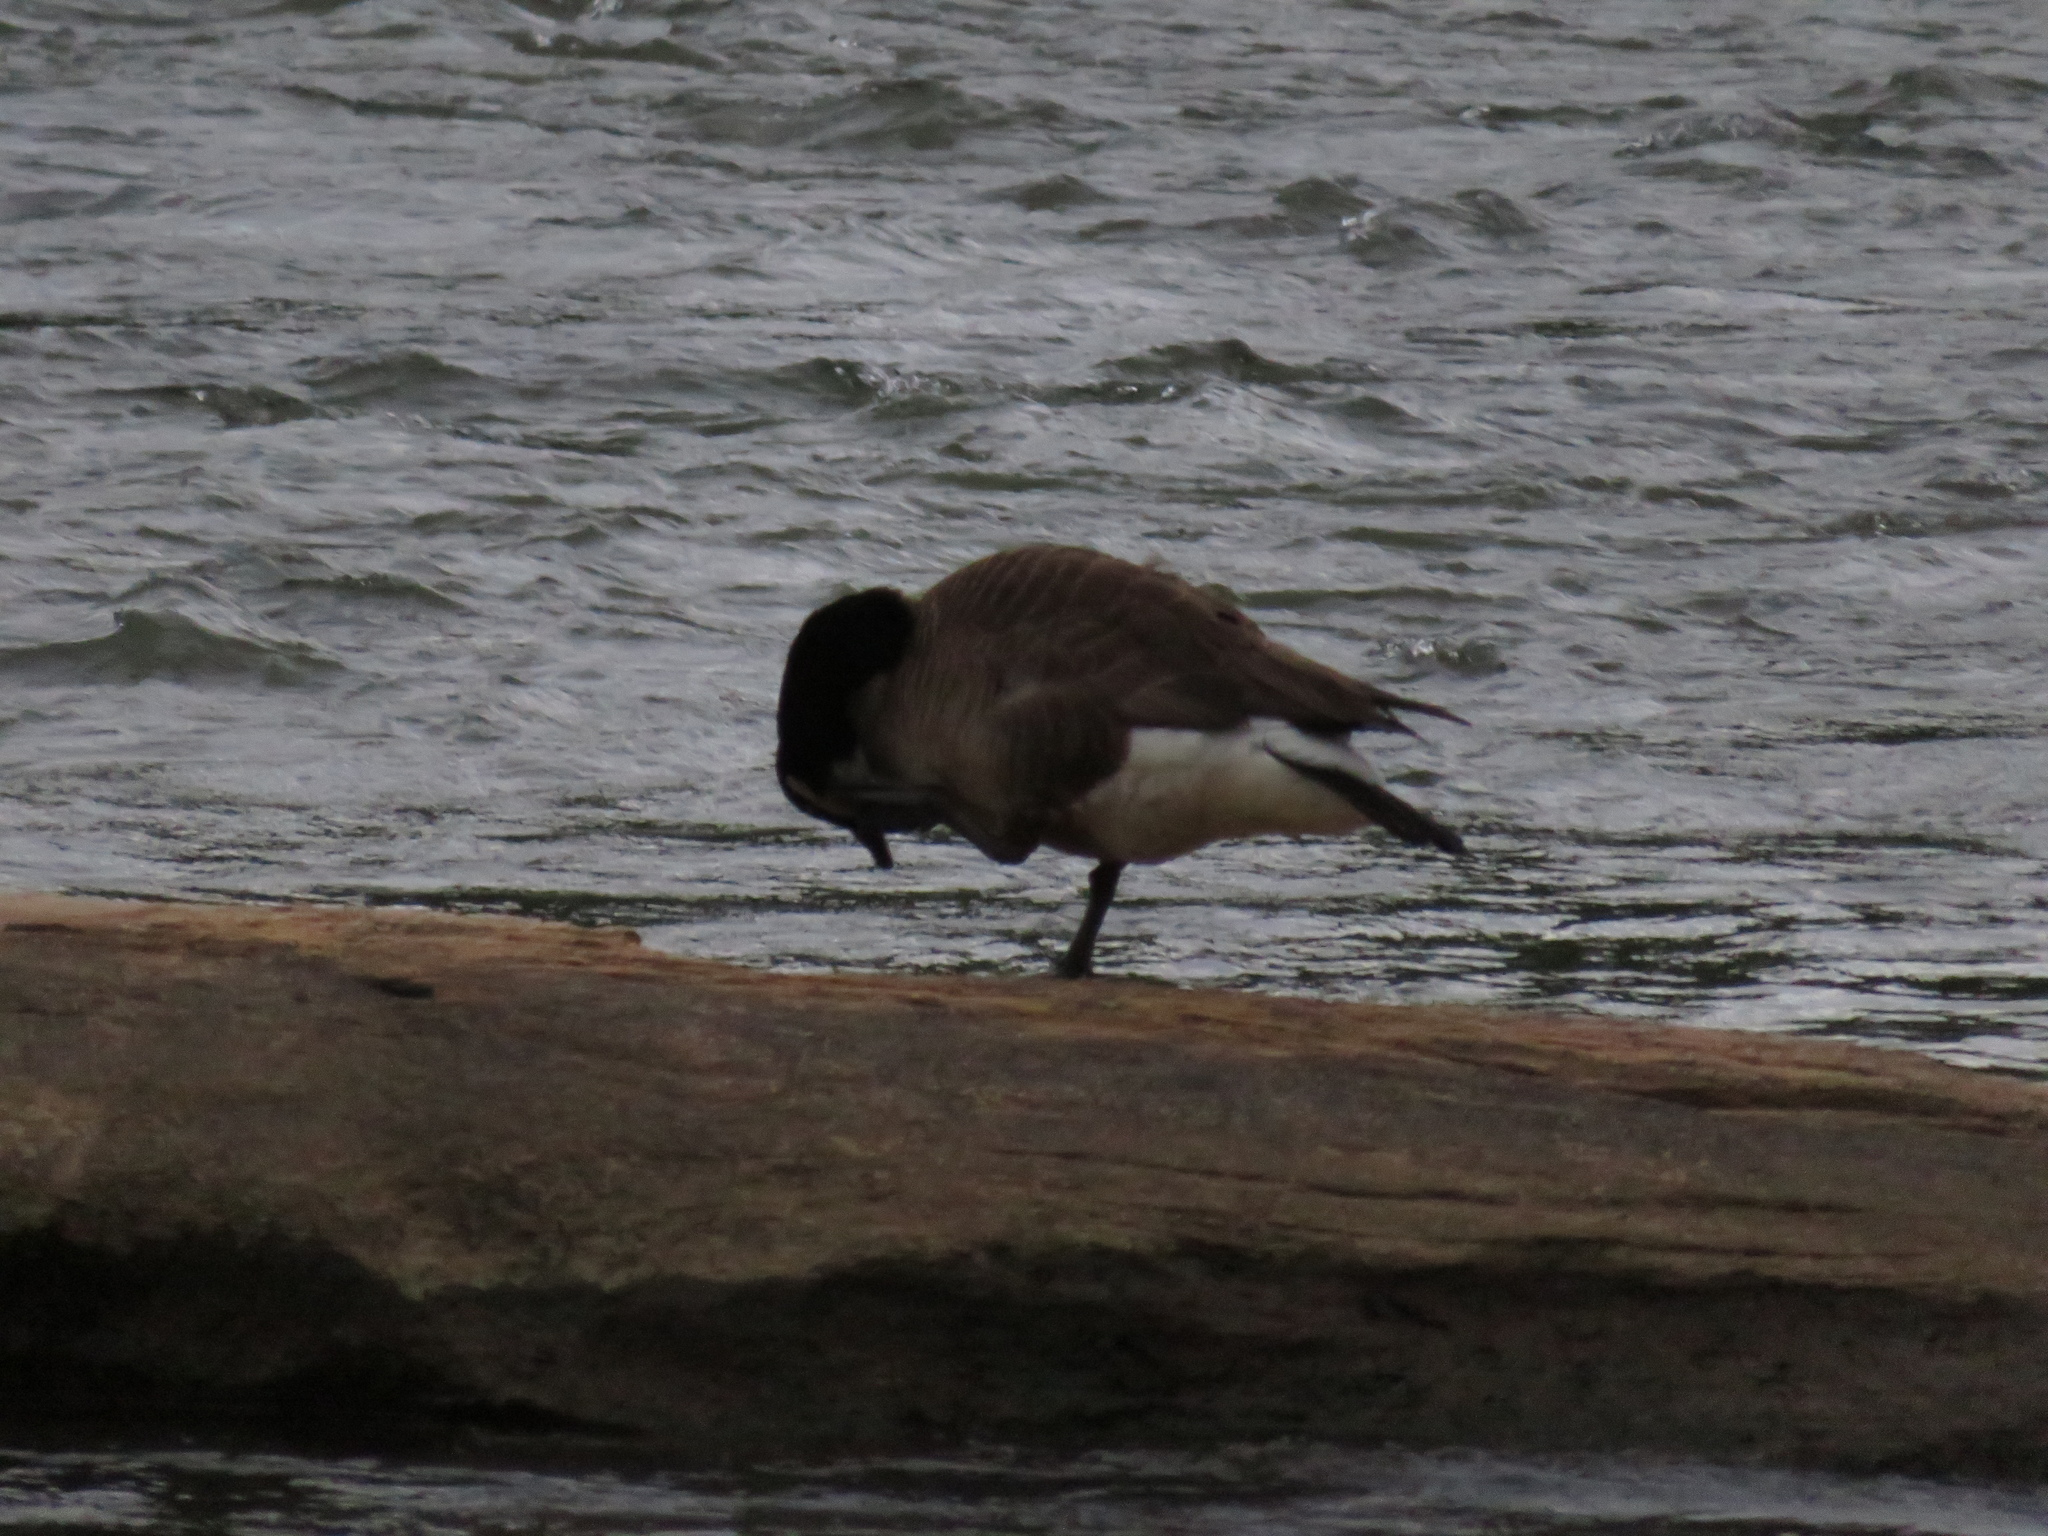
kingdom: Animalia
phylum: Chordata
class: Aves
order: Anseriformes
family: Anatidae
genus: Branta
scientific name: Branta canadensis
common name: Canada goose
